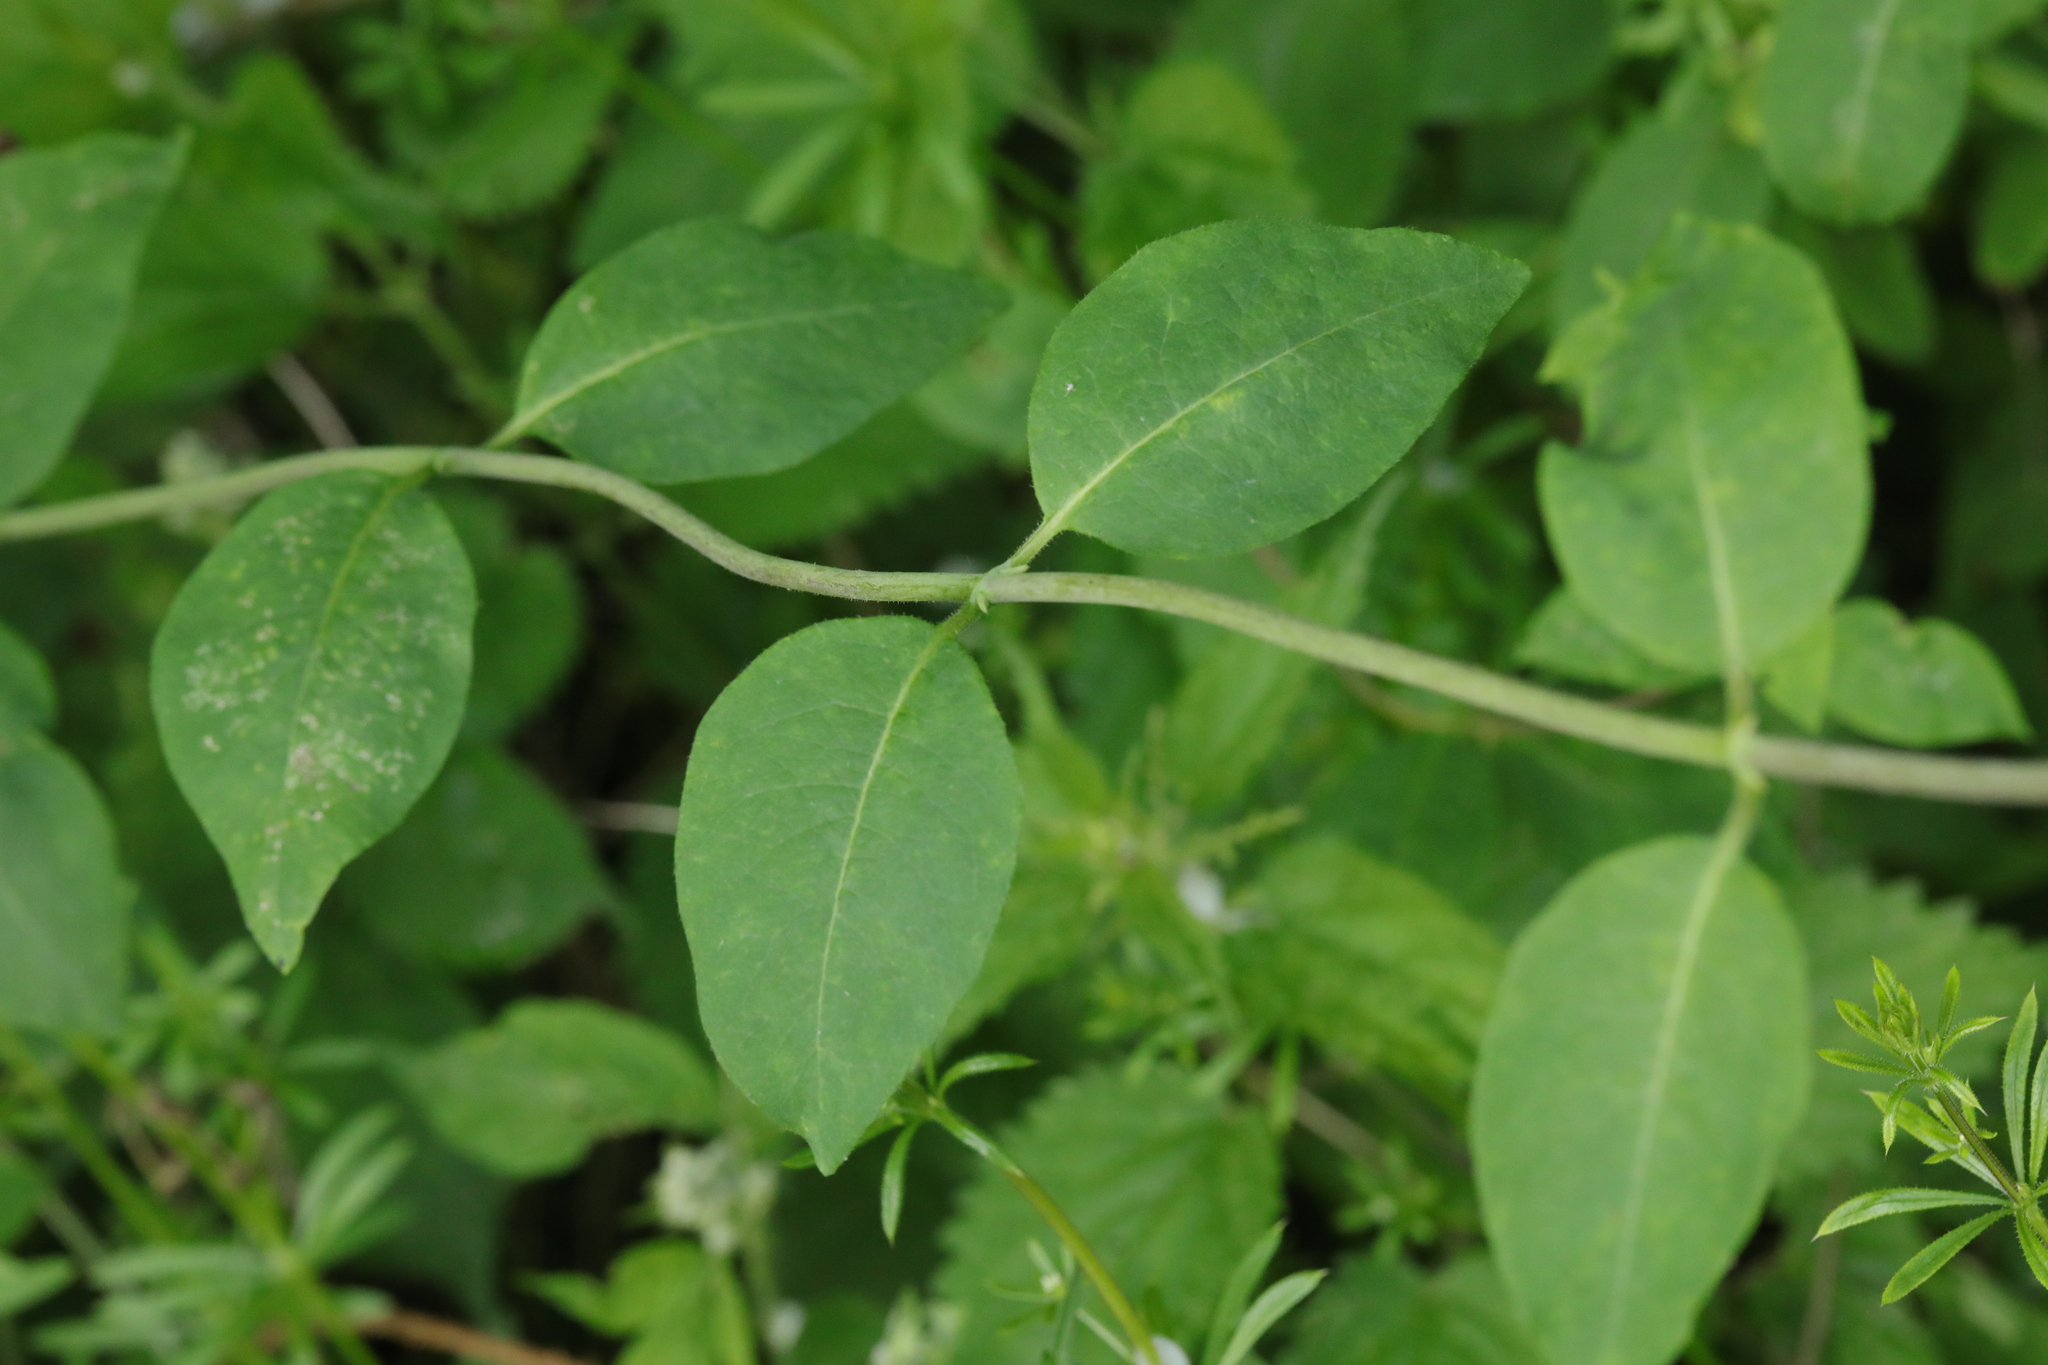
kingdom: Plantae
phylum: Tracheophyta
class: Magnoliopsida
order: Dipsacales
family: Caprifoliaceae
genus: Lonicera
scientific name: Lonicera periclymenum
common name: European honeysuckle
